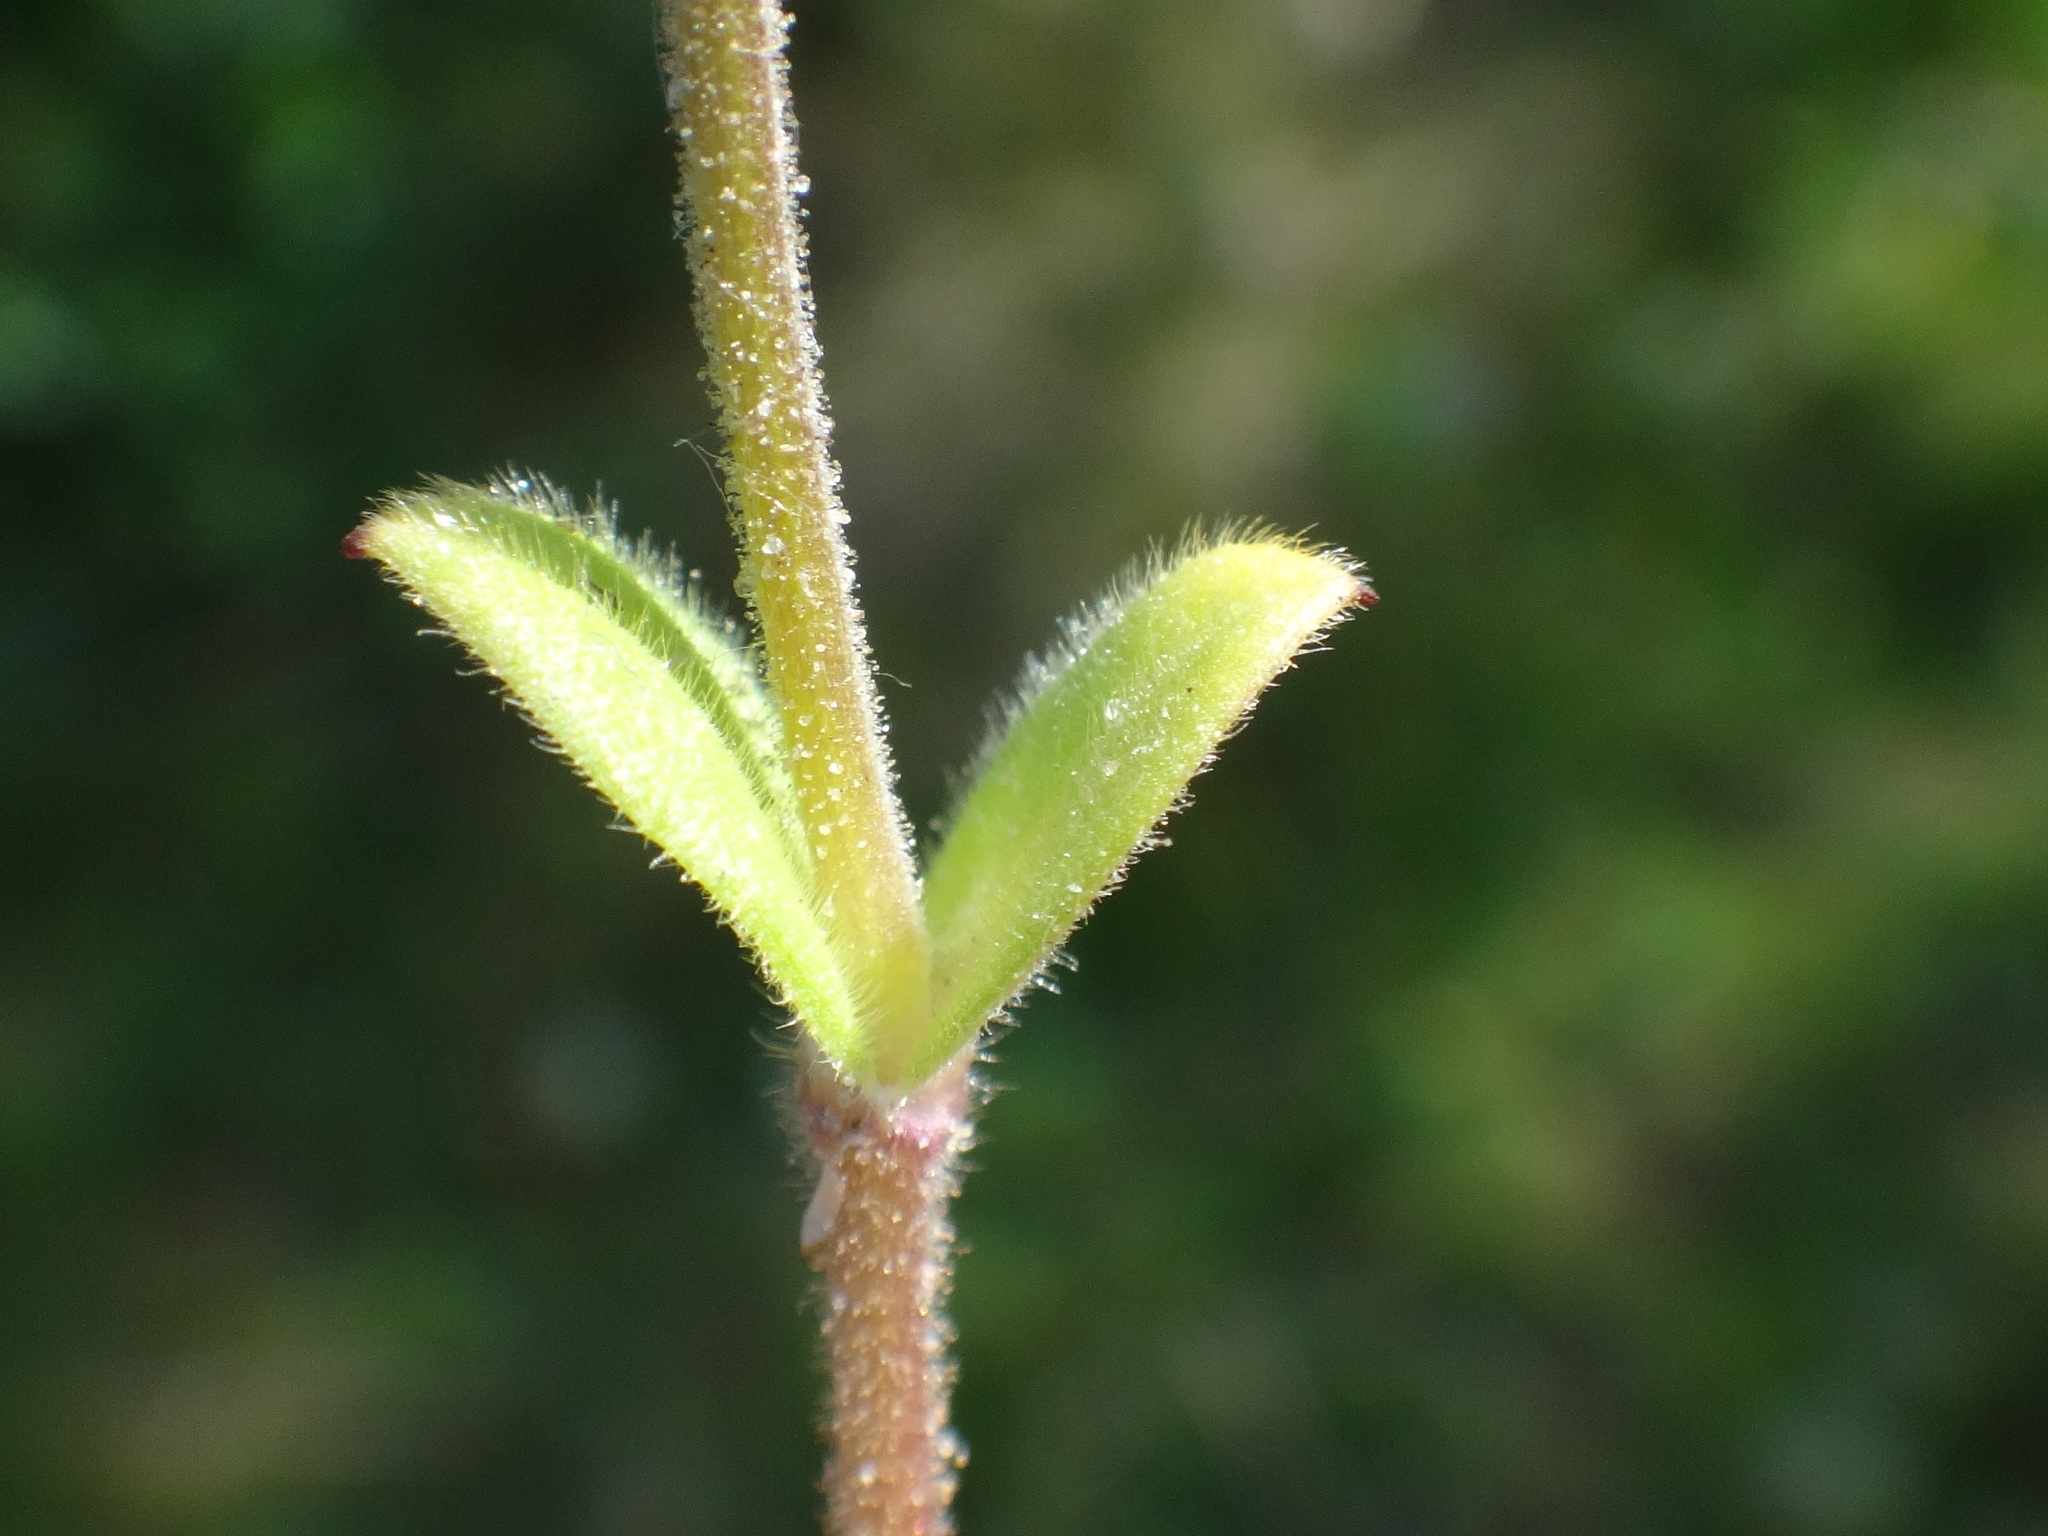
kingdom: Plantae
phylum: Tracheophyta
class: Magnoliopsida
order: Caryophyllales
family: Caryophyllaceae
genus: Cerastium
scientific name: Cerastium semidecandrum
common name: Little mouse-ear
